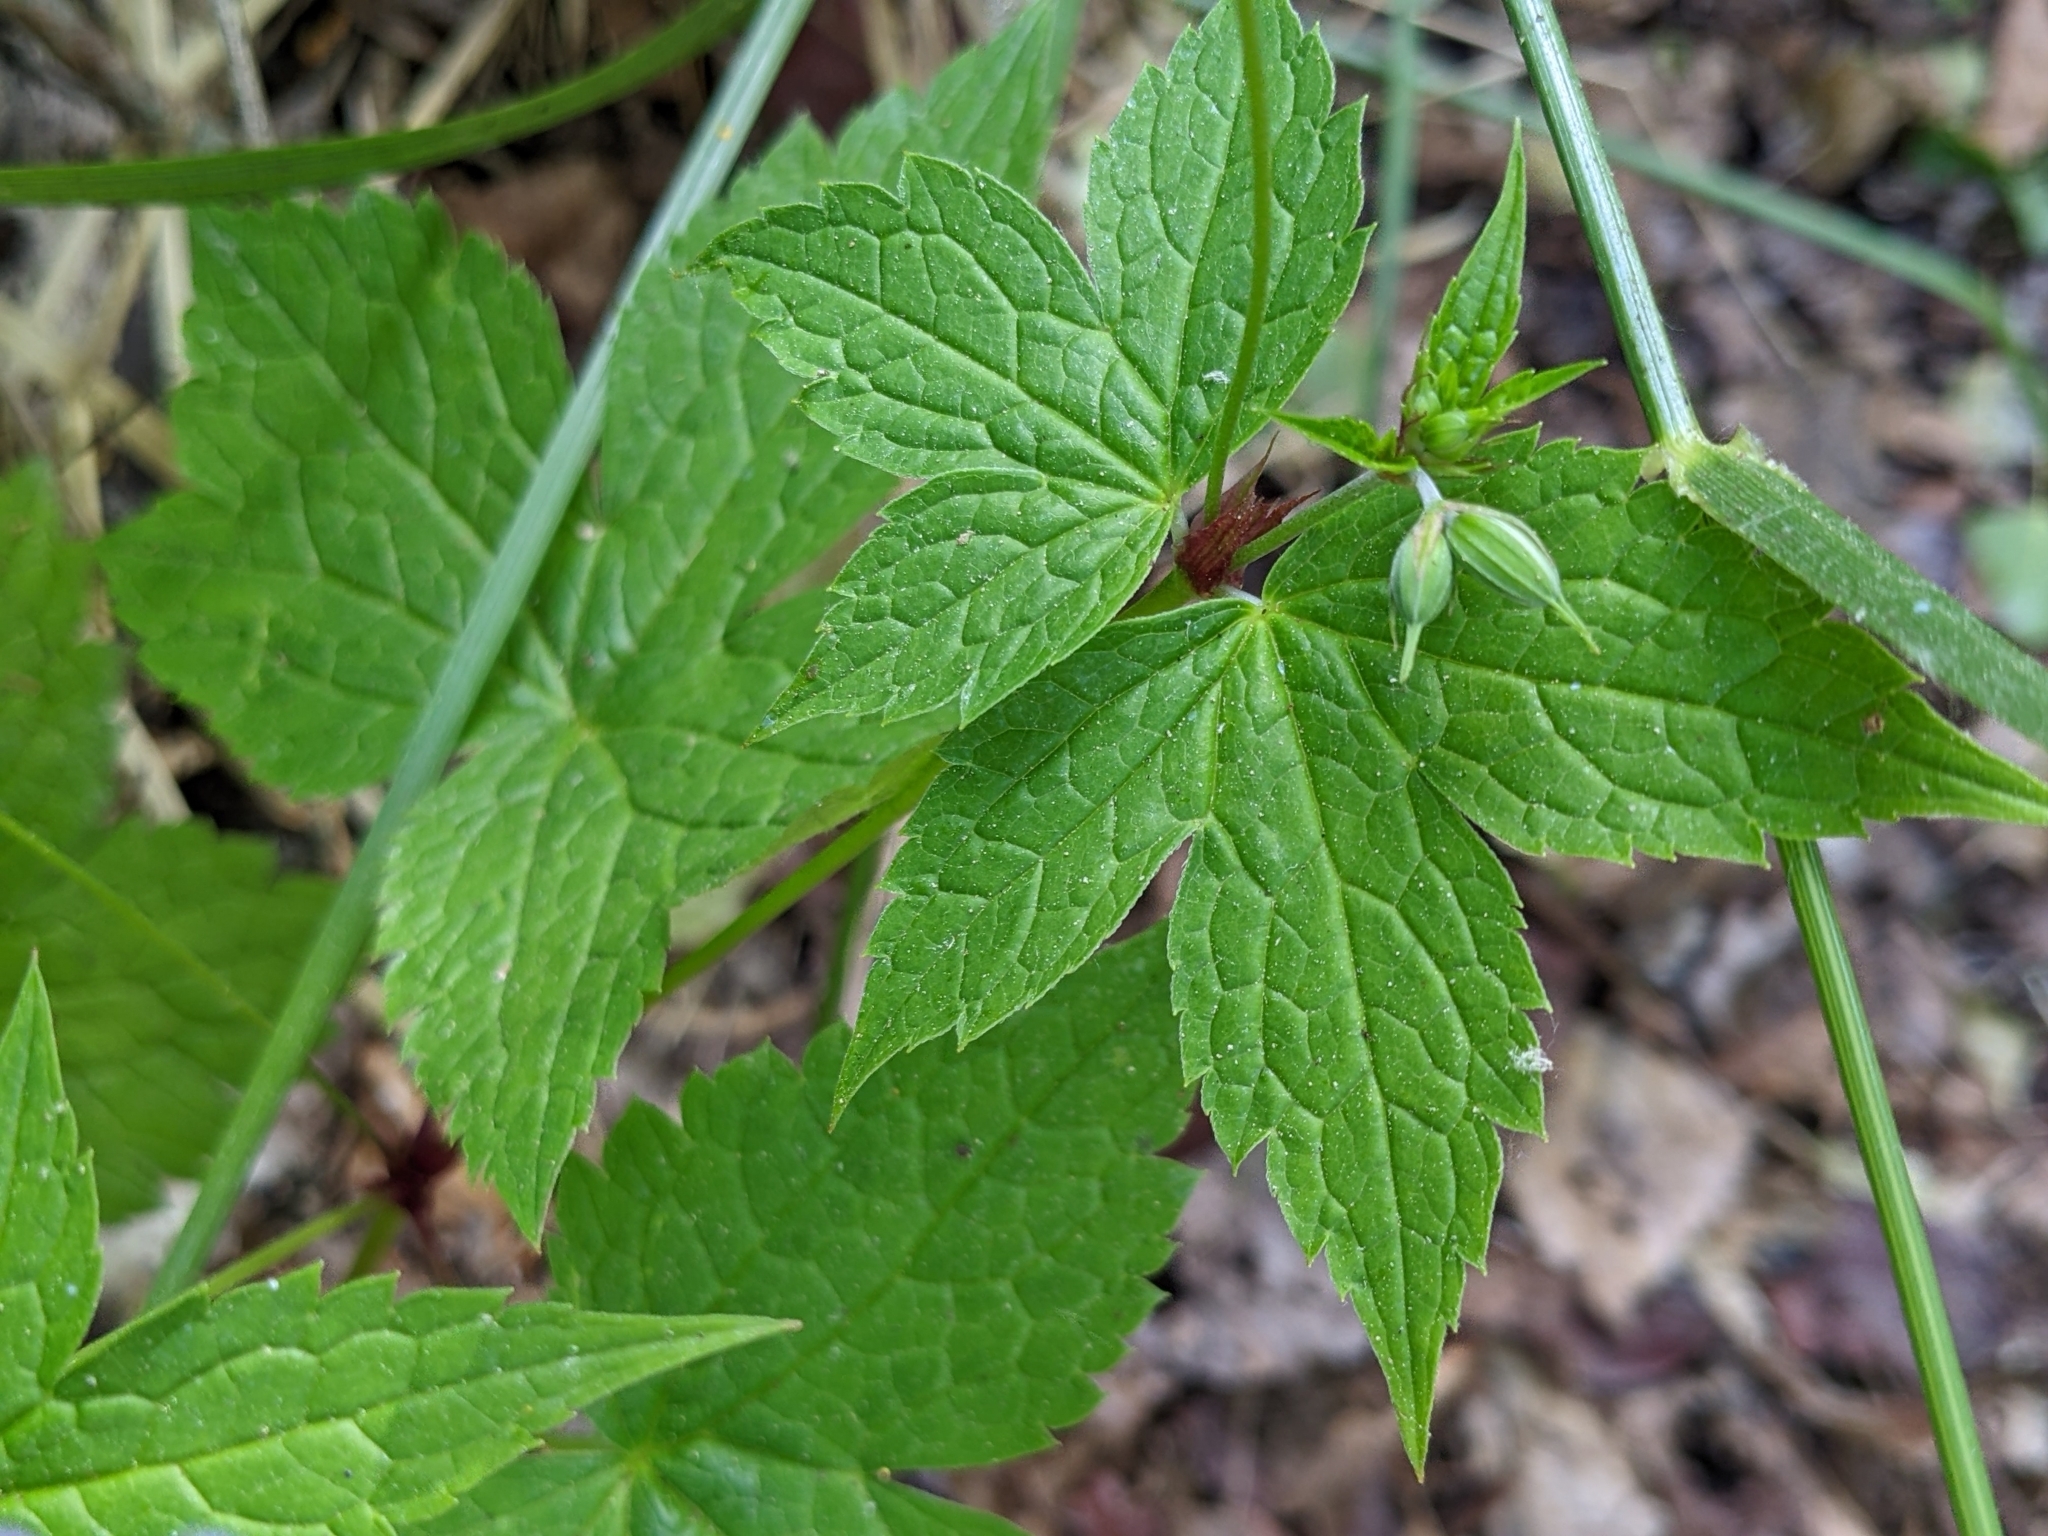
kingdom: Plantae
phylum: Tracheophyta
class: Magnoliopsida
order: Geraniales
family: Geraniaceae
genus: Geranium
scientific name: Geranium nodosum
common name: Knotted crane's-bill
